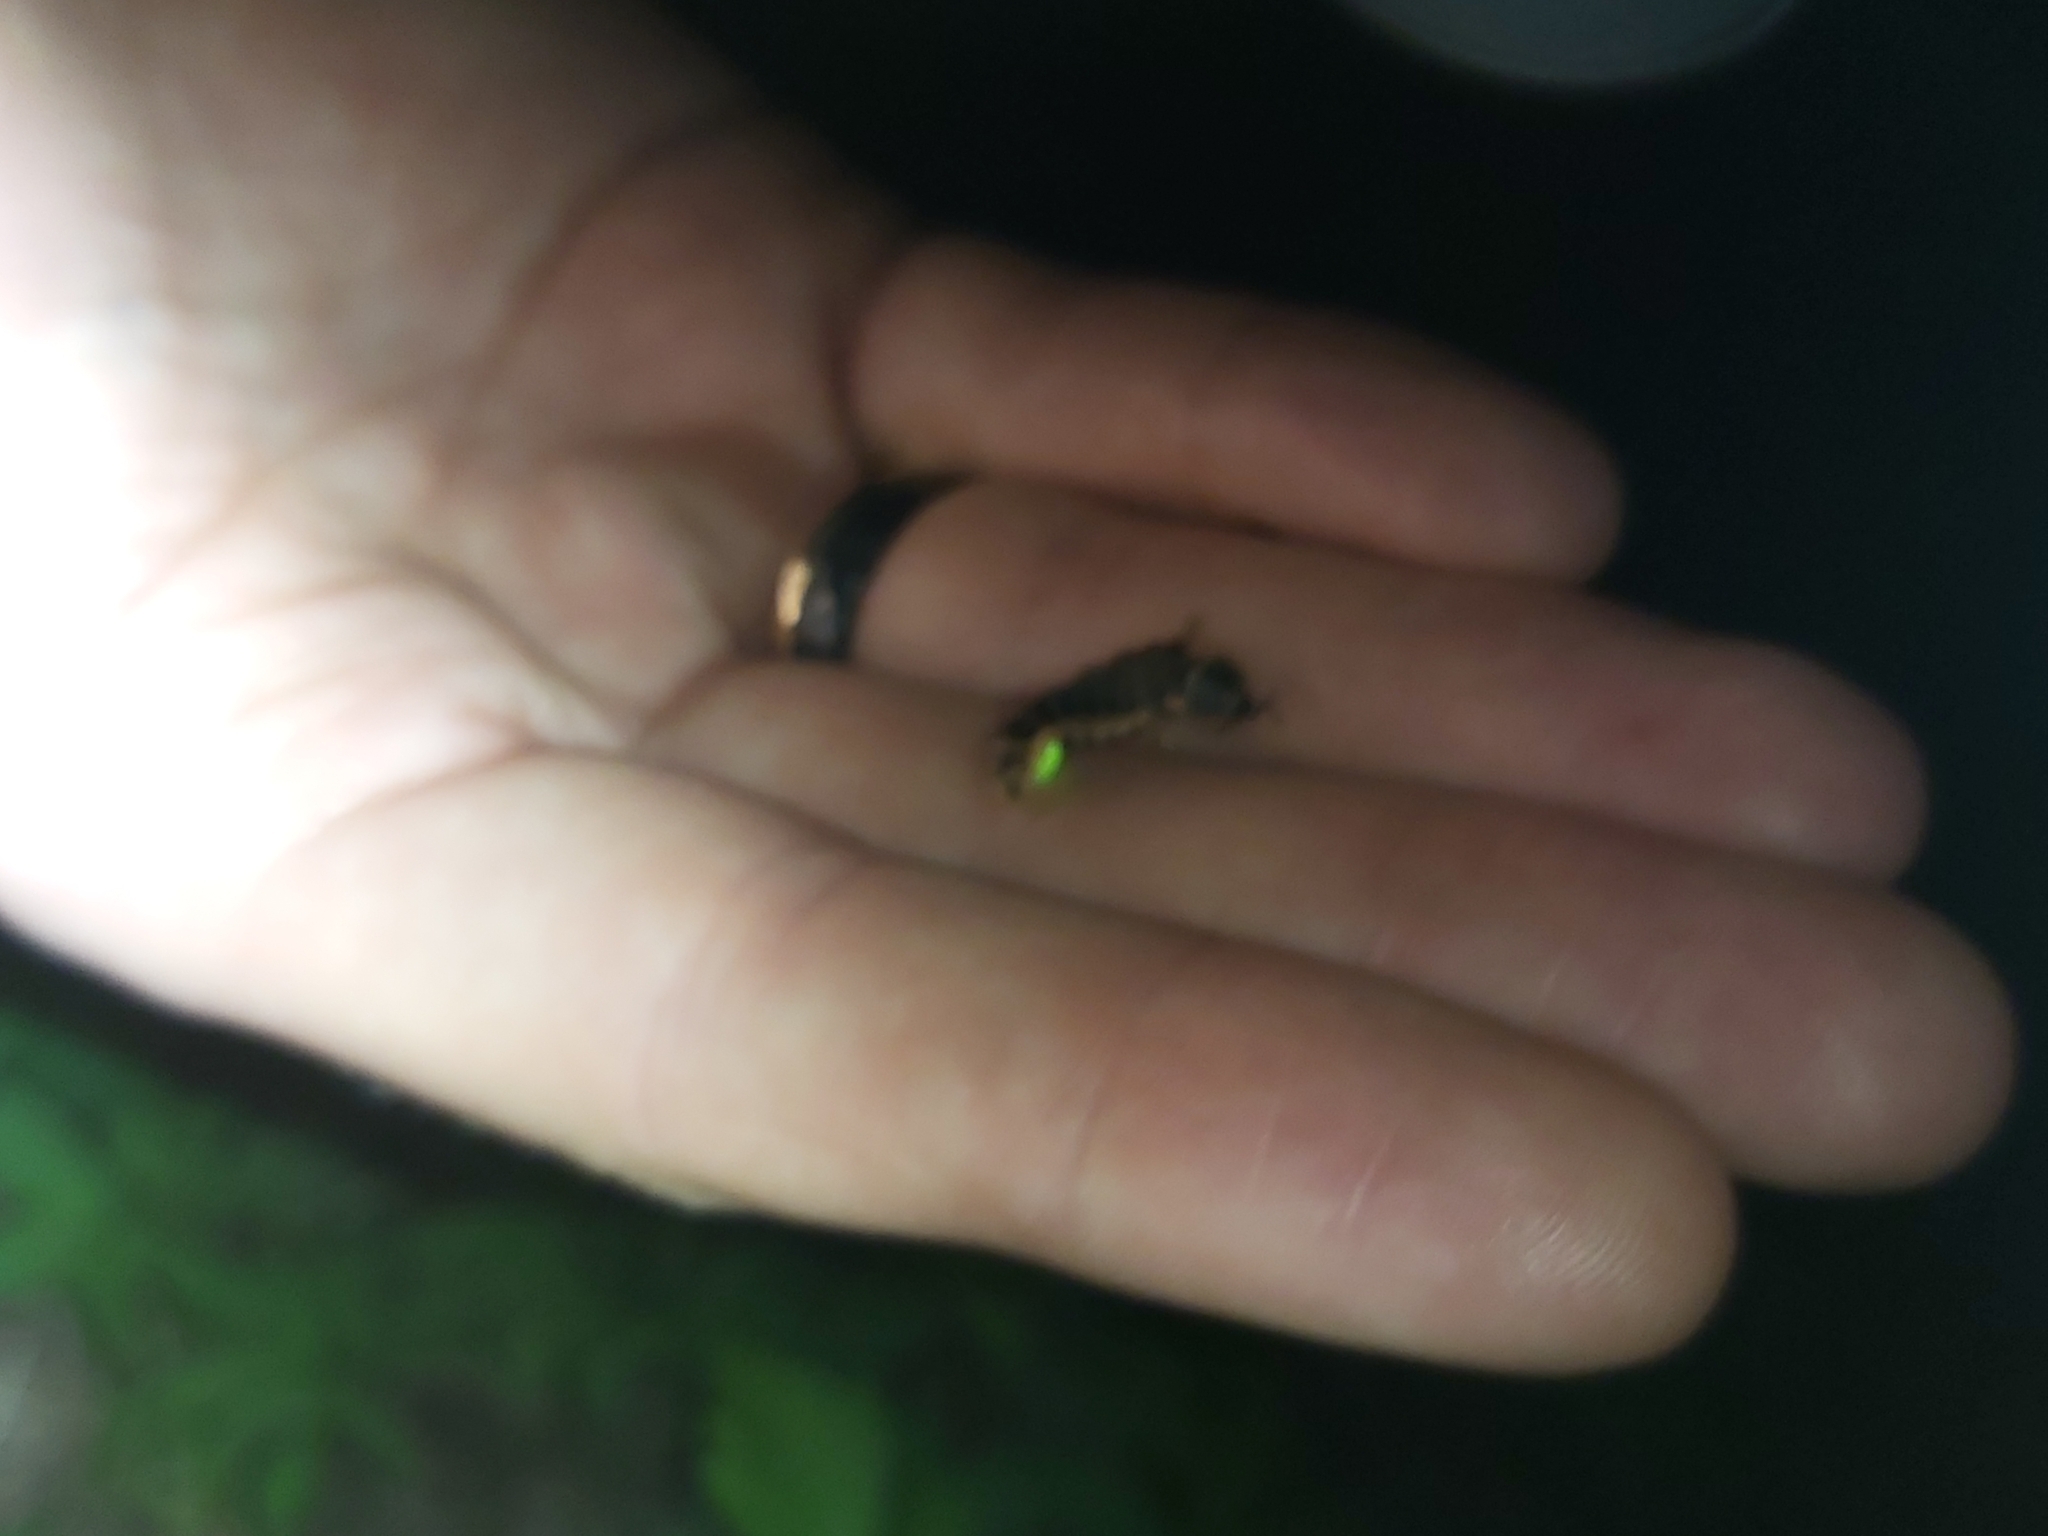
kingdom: Animalia
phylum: Arthropoda
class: Insecta
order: Coleoptera
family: Lampyridae
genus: Lampyris
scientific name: Lampyris noctiluca
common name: Glow-worm
